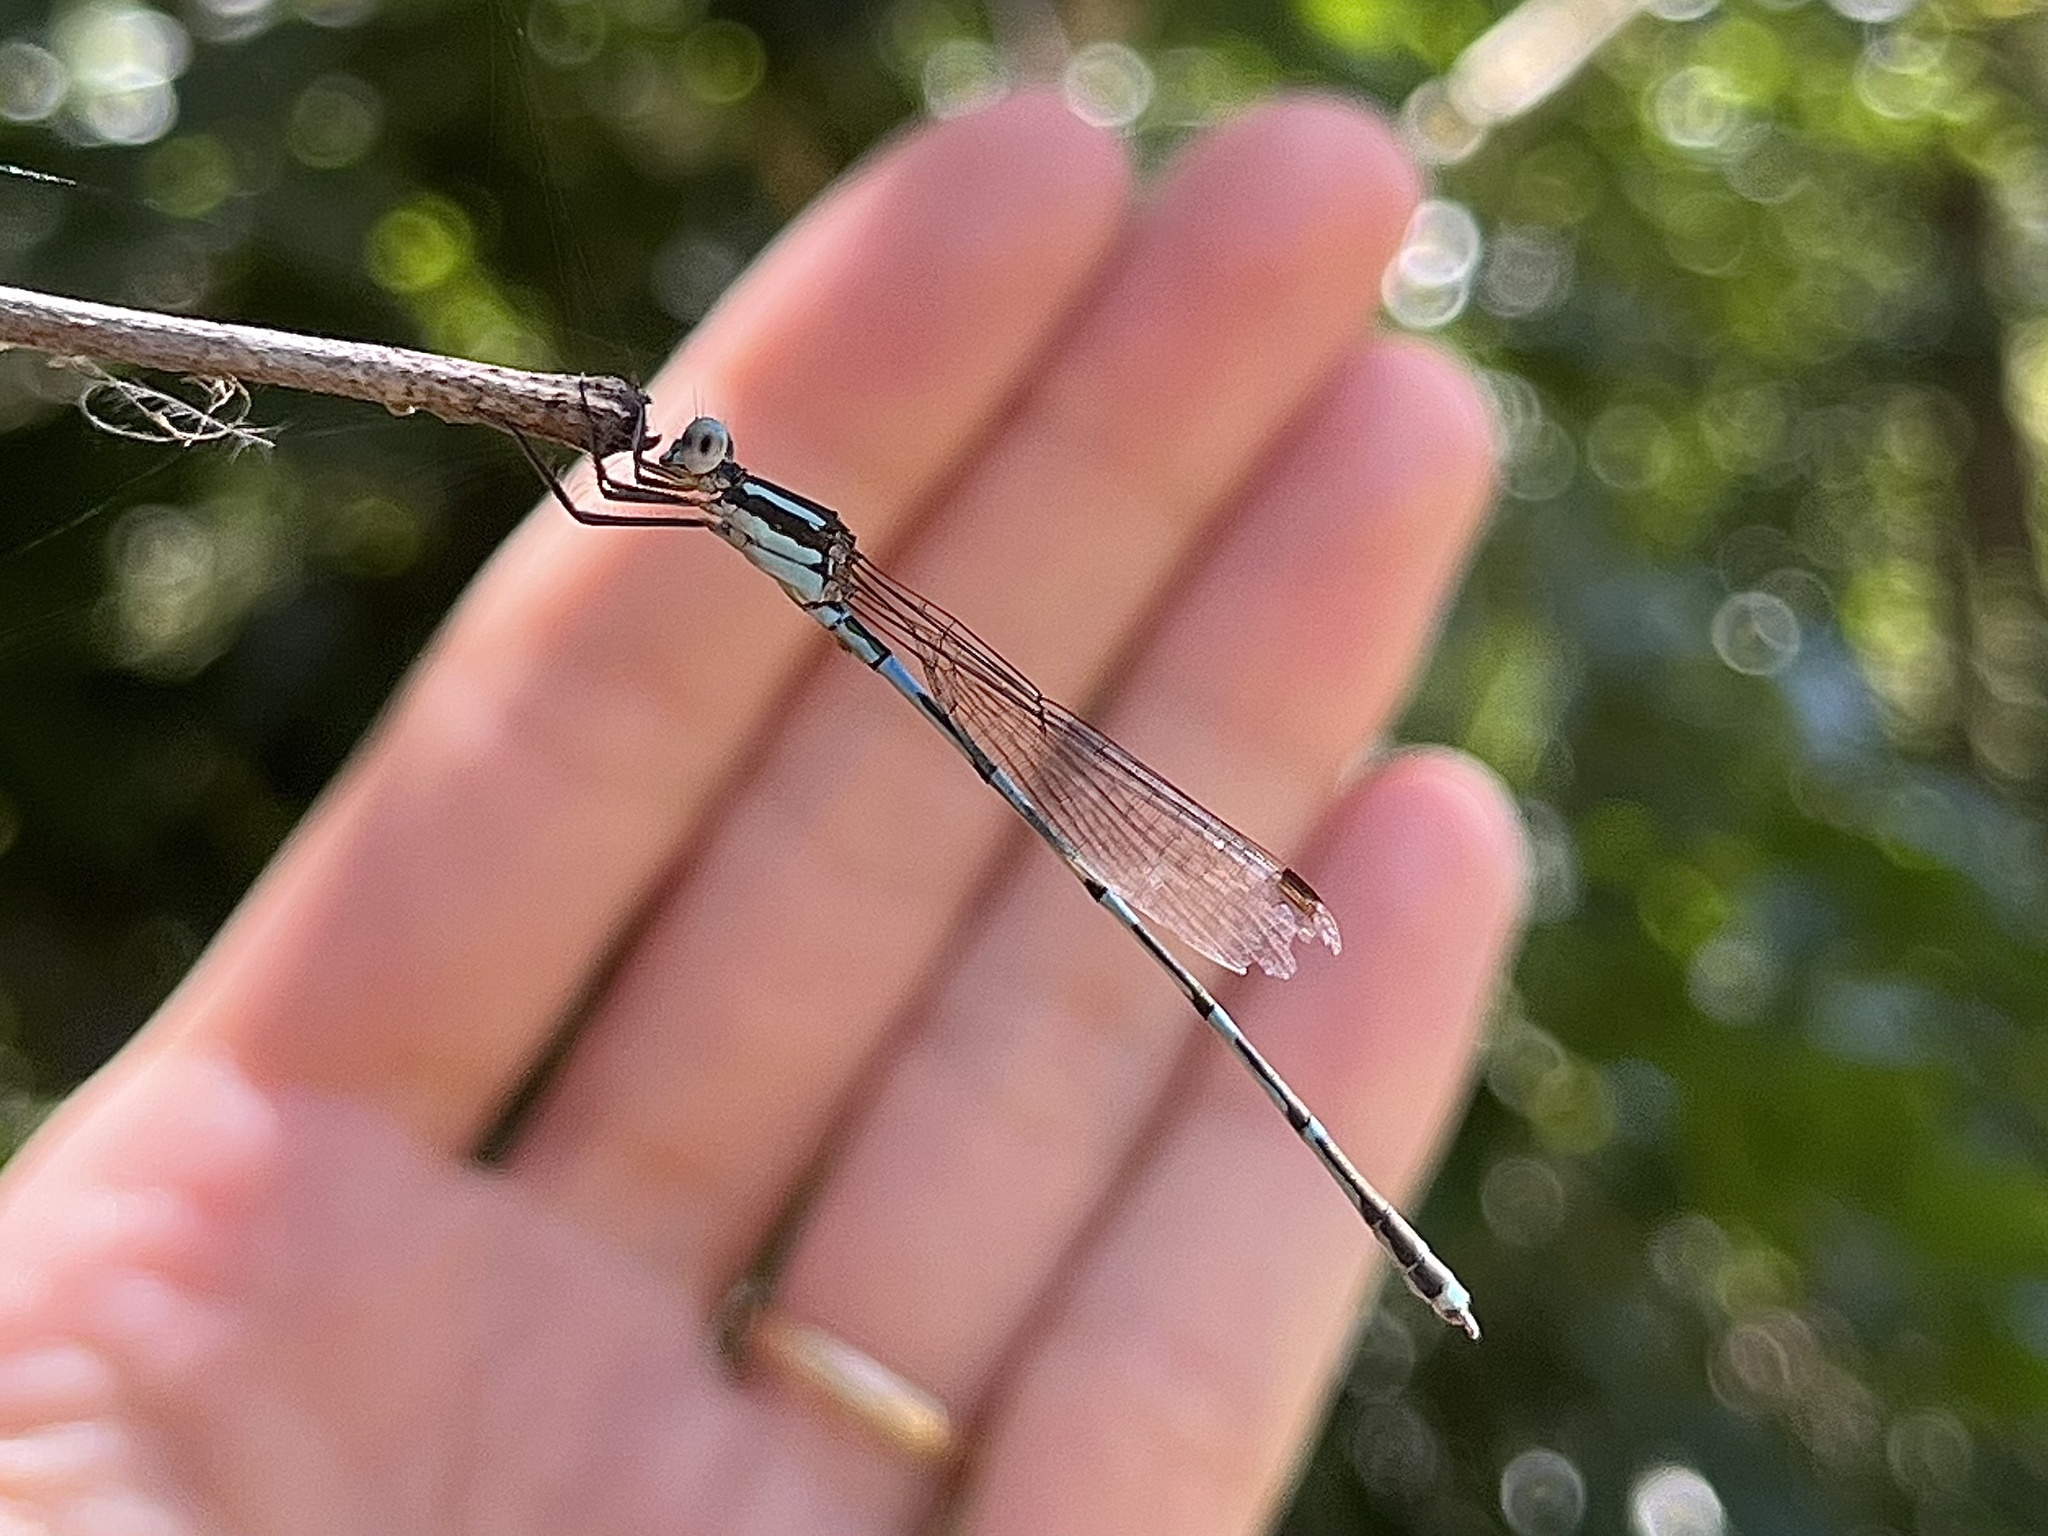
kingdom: Animalia
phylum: Arthropoda
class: Insecta
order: Odonata
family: Lestidae
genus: Austrolestes
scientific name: Austrolestes leda
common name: Wandering ringtail
